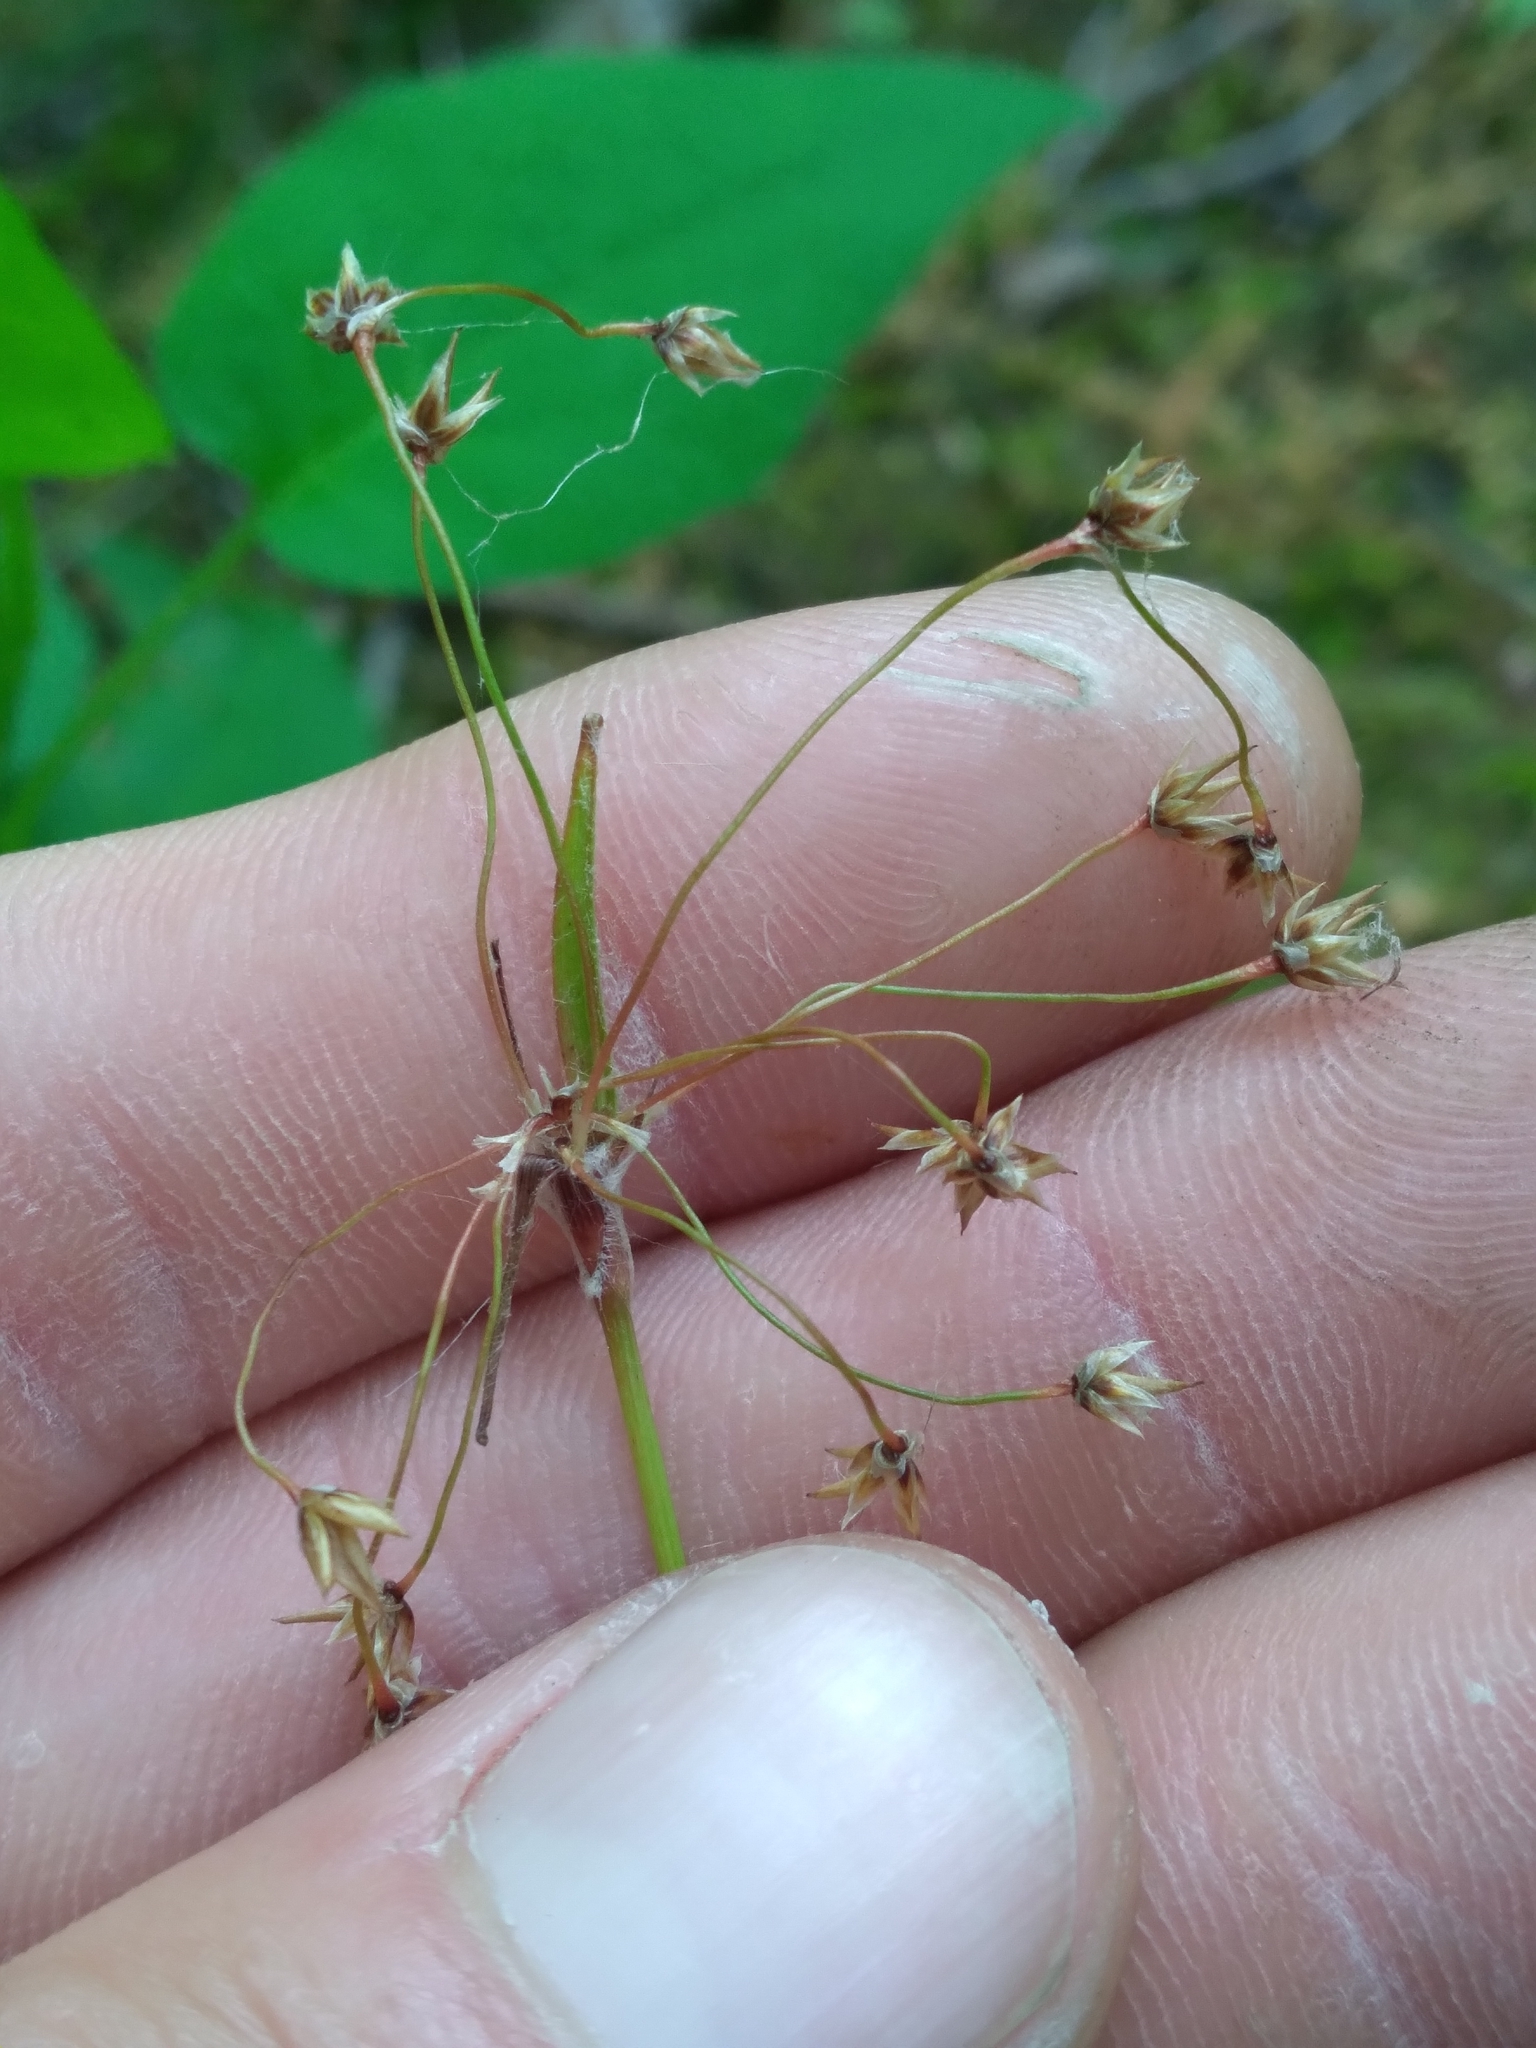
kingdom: Plantae
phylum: Tracheophyta
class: Liliopsida
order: Poales
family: Juncaceae
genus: Luzula
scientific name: Luzula acuminata
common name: Hairy woodrush
